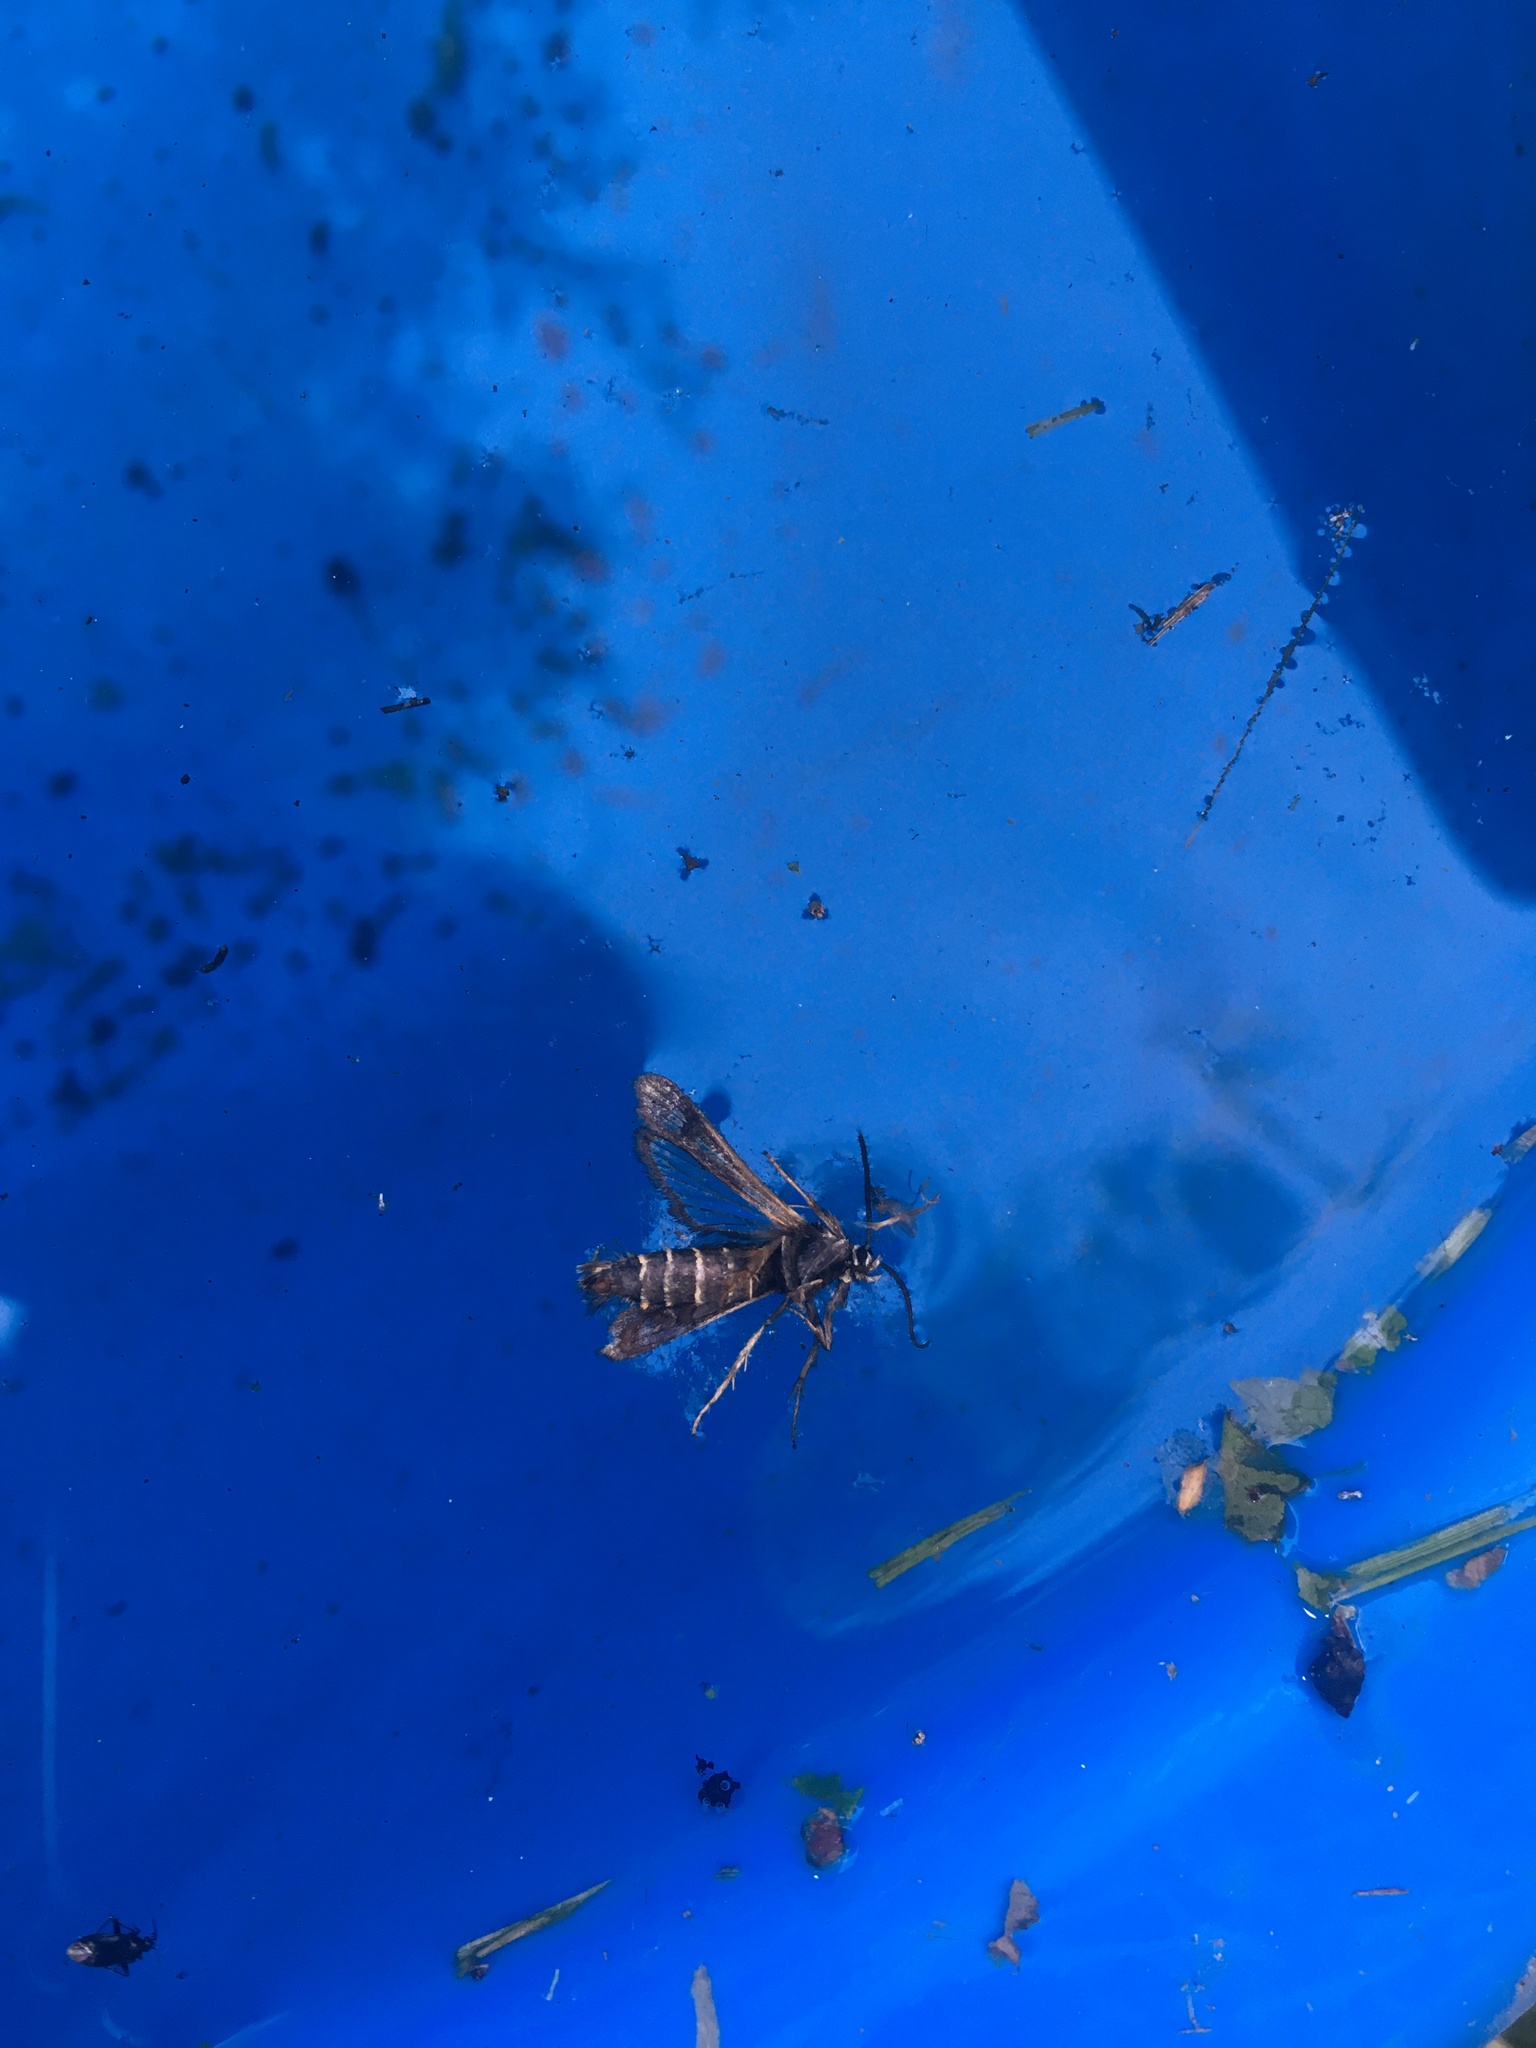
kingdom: Animalia
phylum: Arthropoda
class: Insecta
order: Lepidoptera
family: Sesiidae
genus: Pennisetia
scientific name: Pennisetia hylaeiformis
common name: Raspberry clearwing
